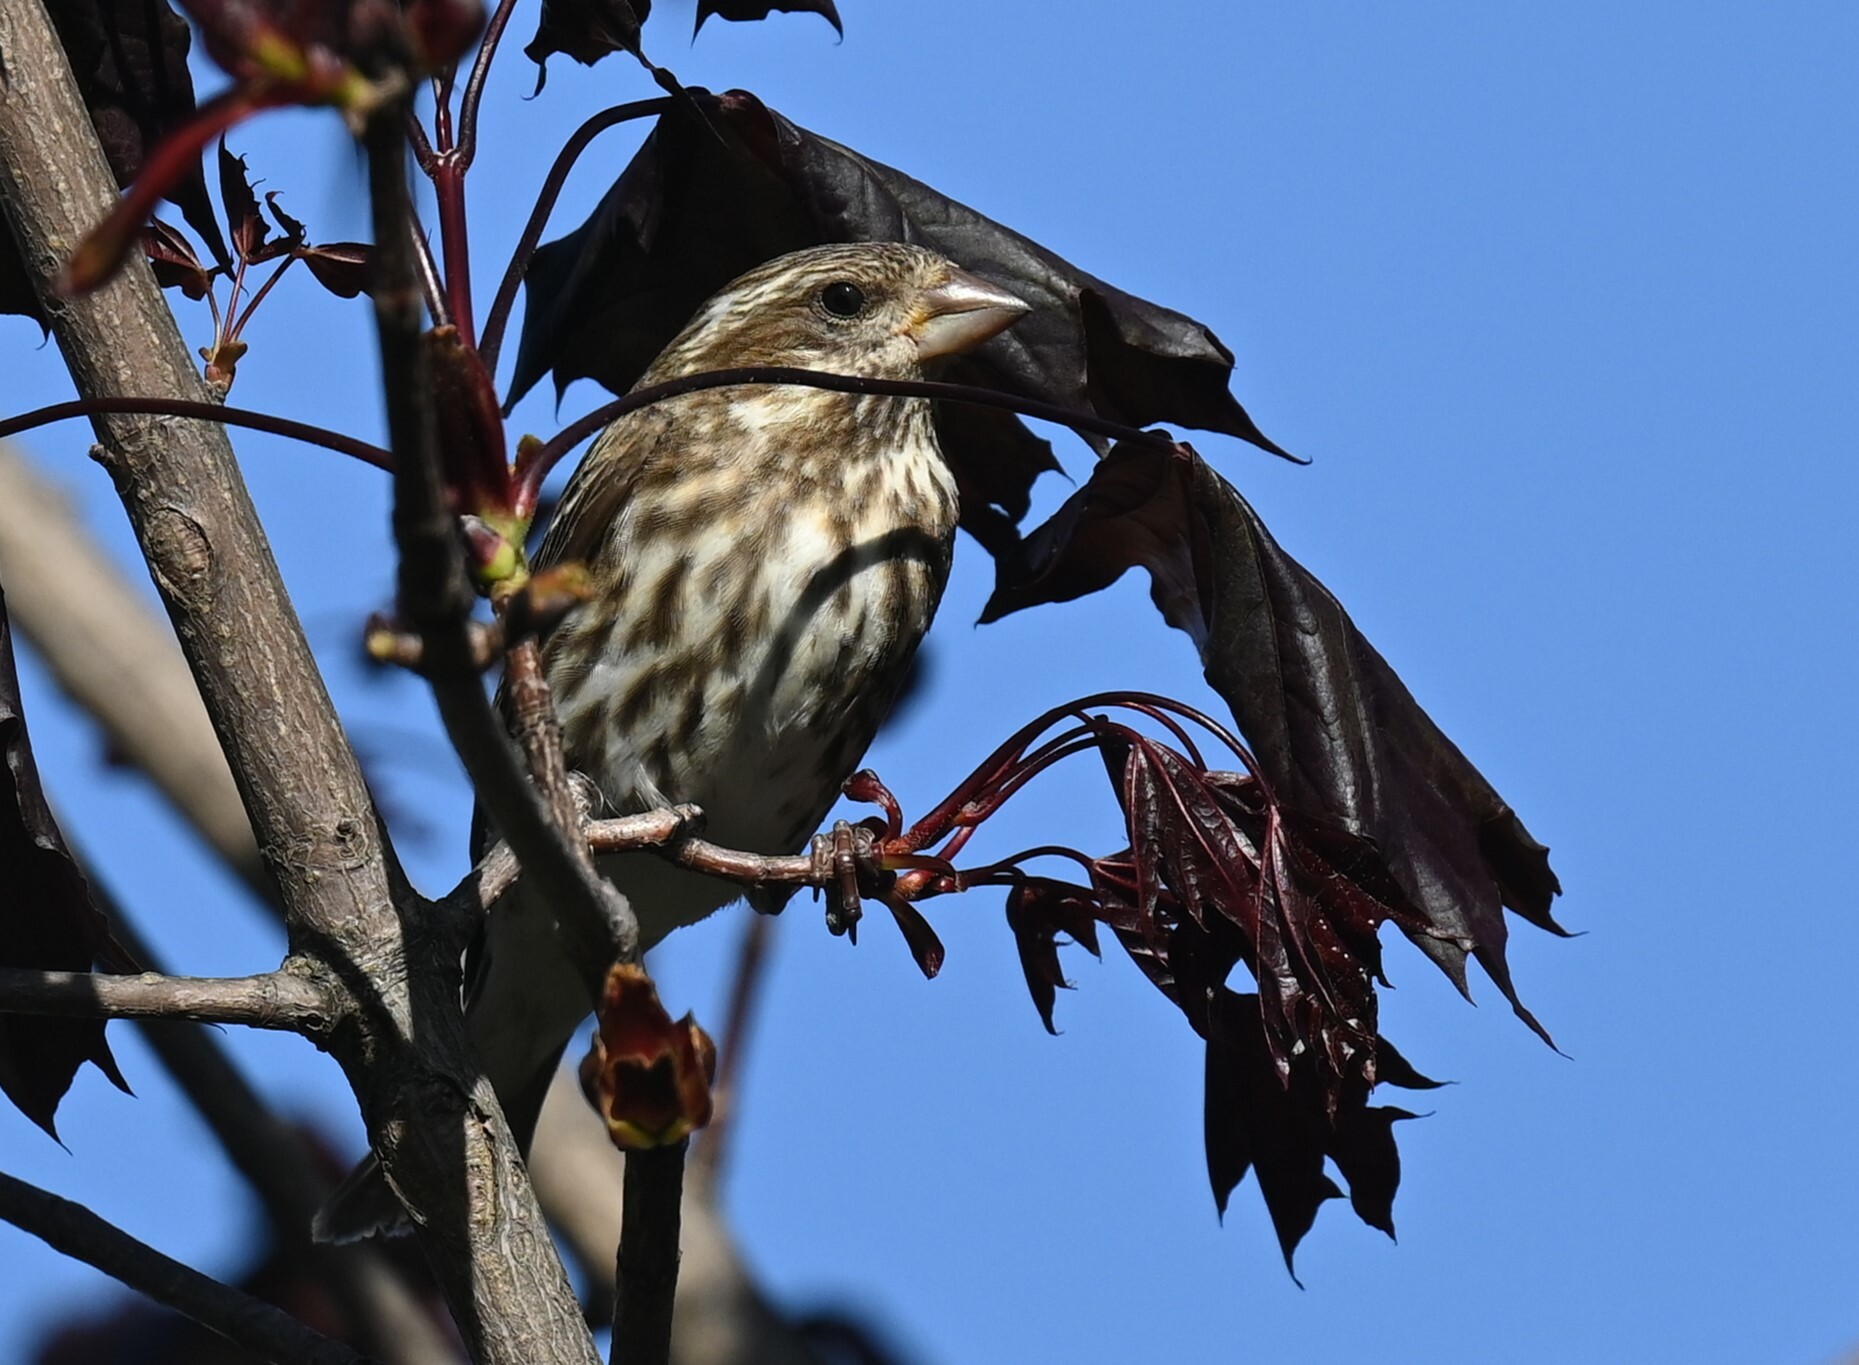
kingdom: Animalia
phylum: Chordata
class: Aves
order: Passeriformes
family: Fringillidae
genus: Haemorhous
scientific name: Haemorhous purpureus
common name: Purple finch
